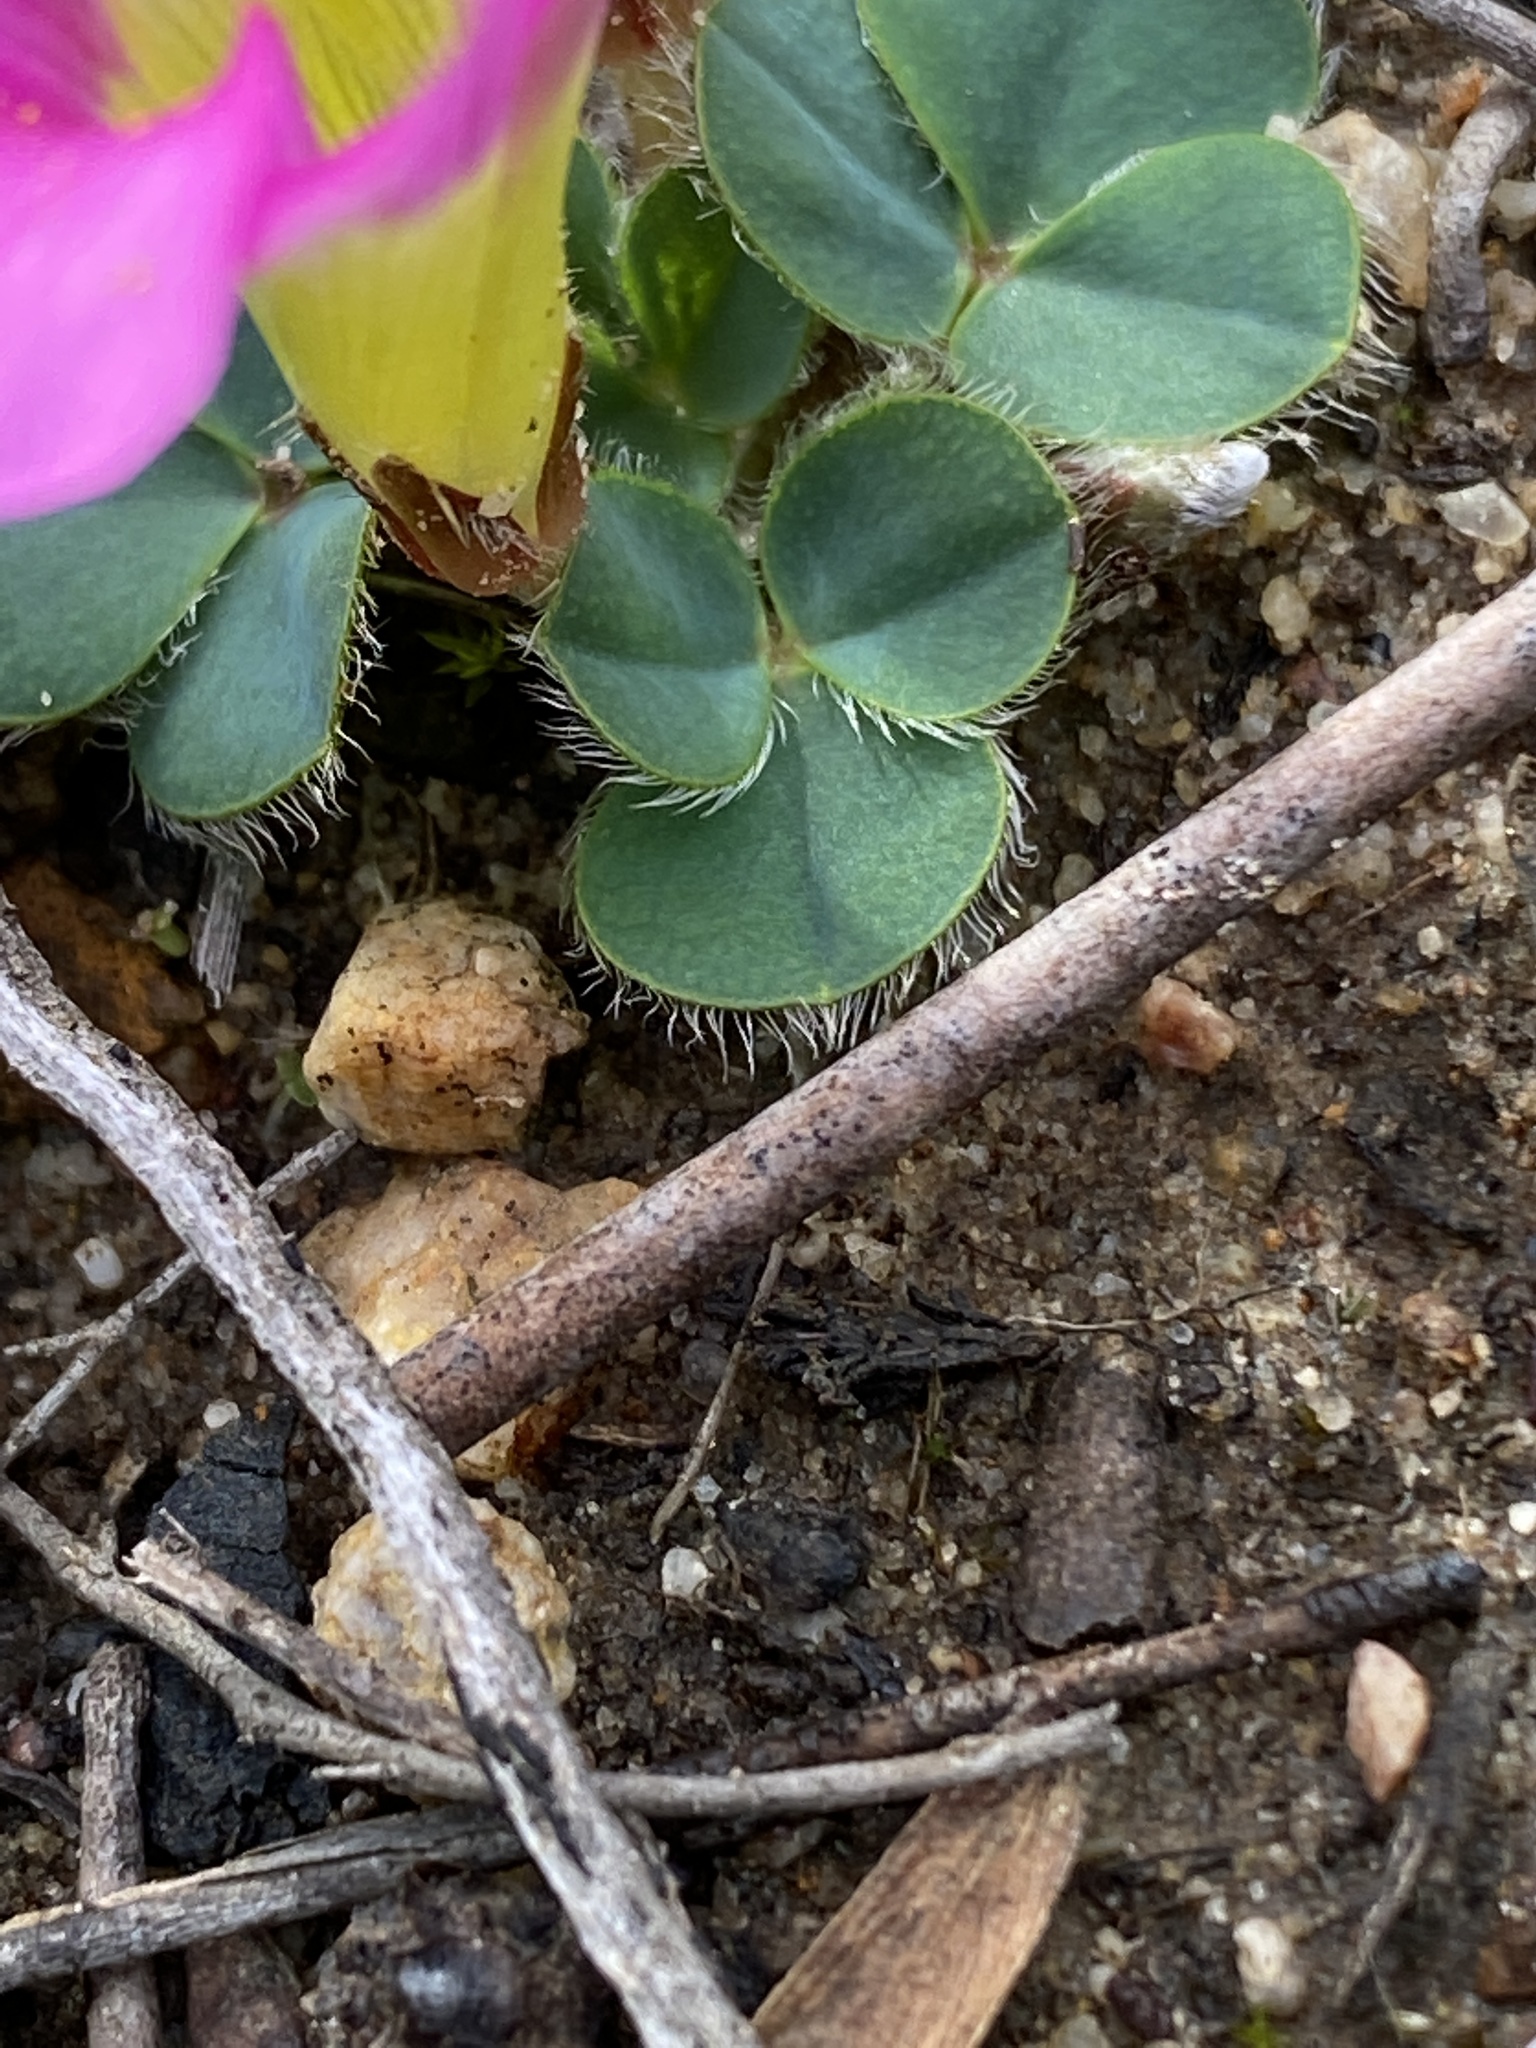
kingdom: Plantae
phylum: Tracheophyta
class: Magnoliopsida
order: Oxalidales
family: Oxalidaceae
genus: Oxalis
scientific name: Oxalis purpurea
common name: Purple woodsorrel
